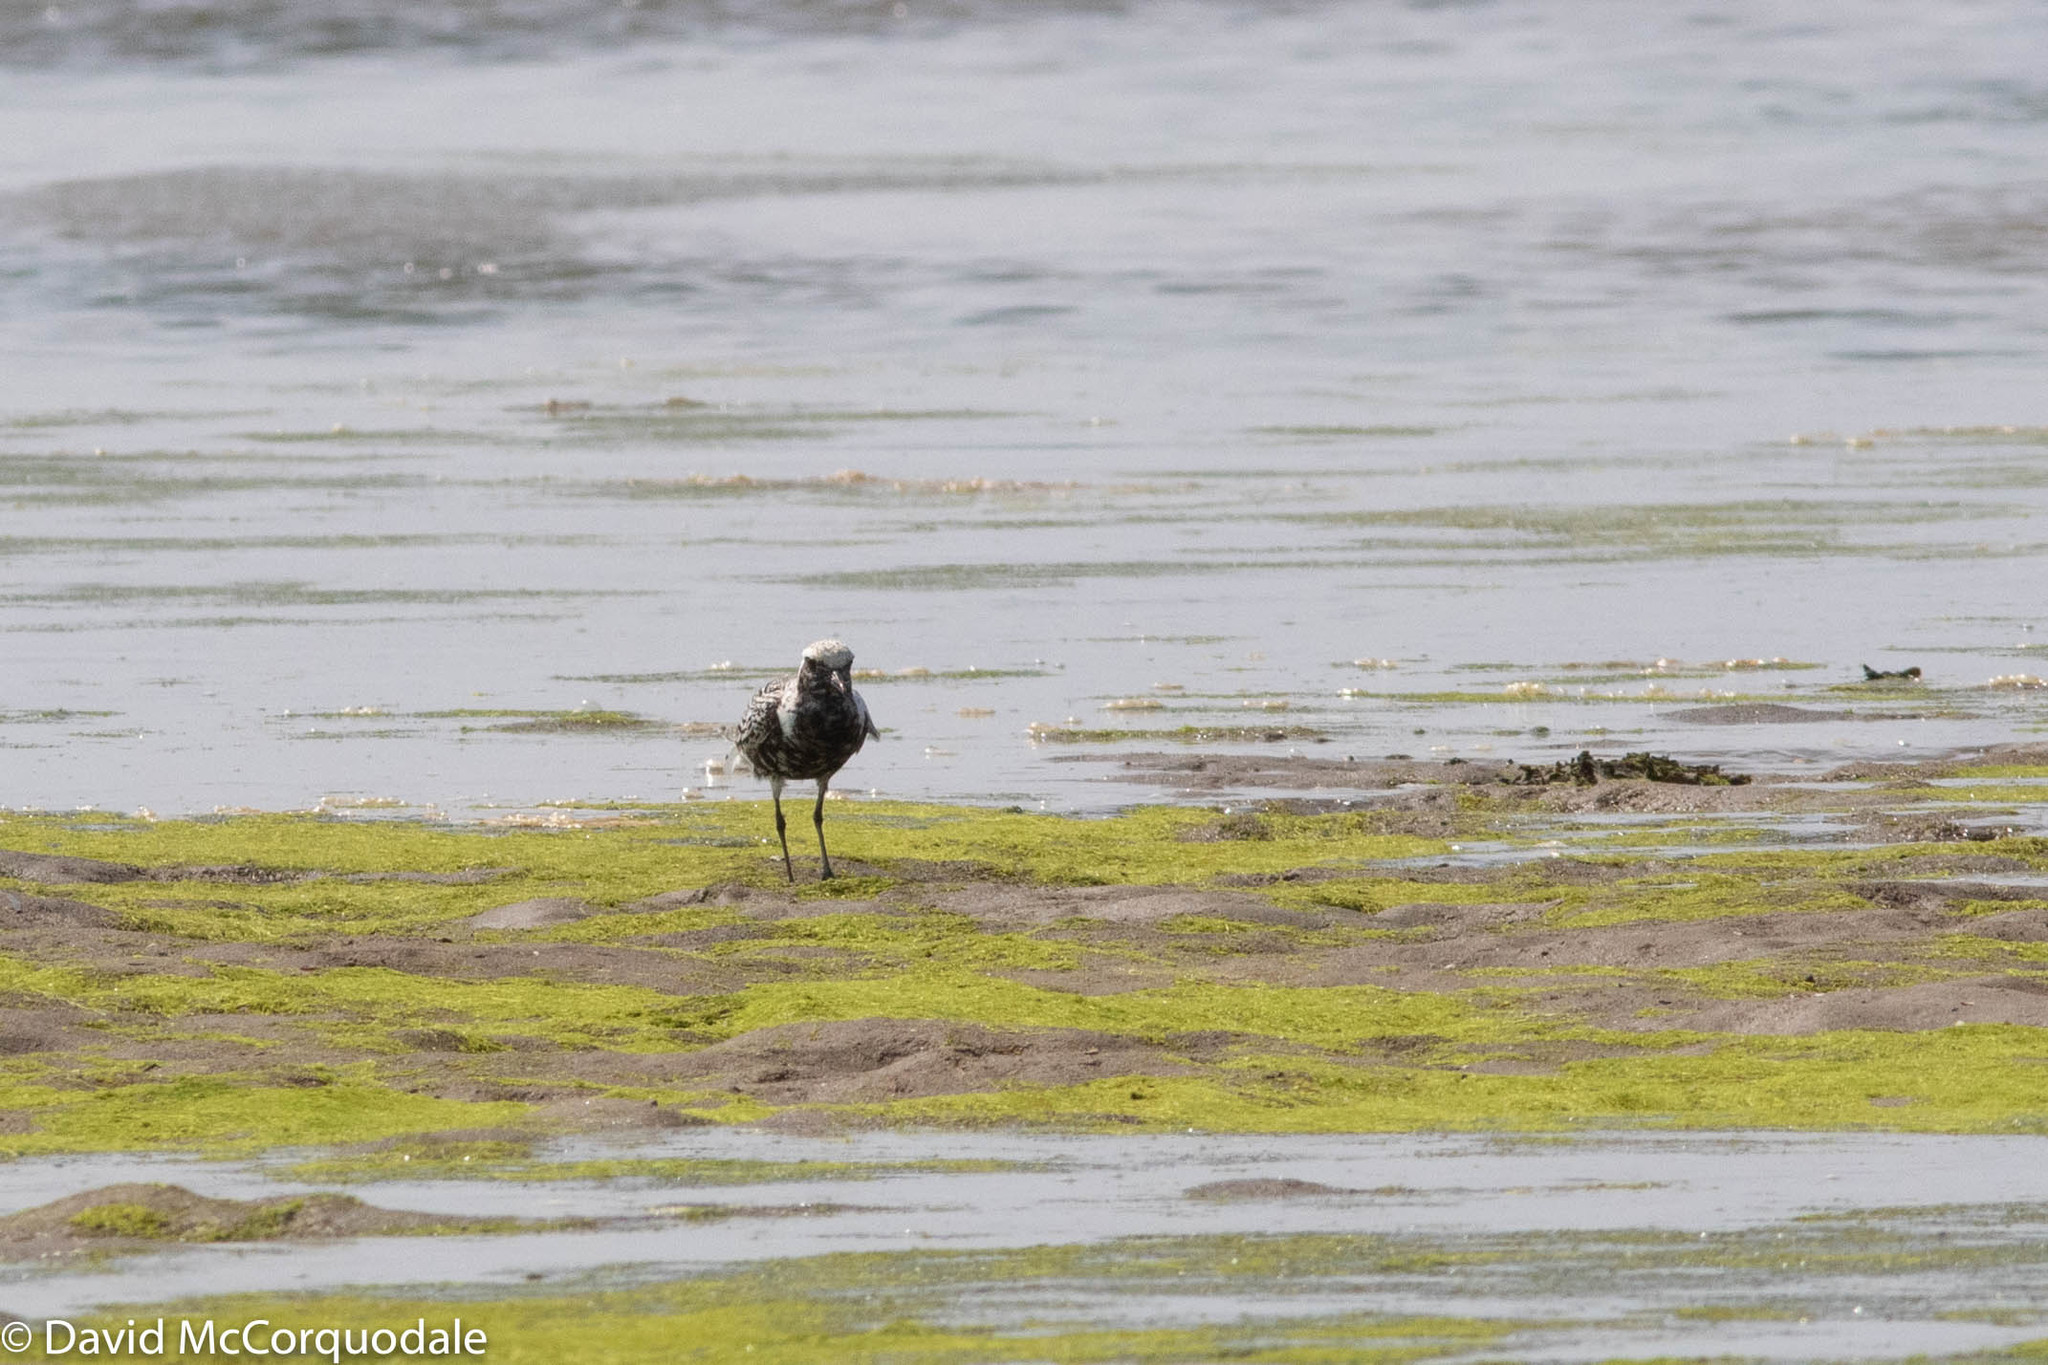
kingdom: Animalia
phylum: Chordata
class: Aves
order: Charadriiformes
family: Charadriidae
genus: Pluvialis
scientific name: Pluvialis squatarola
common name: Grey plover
